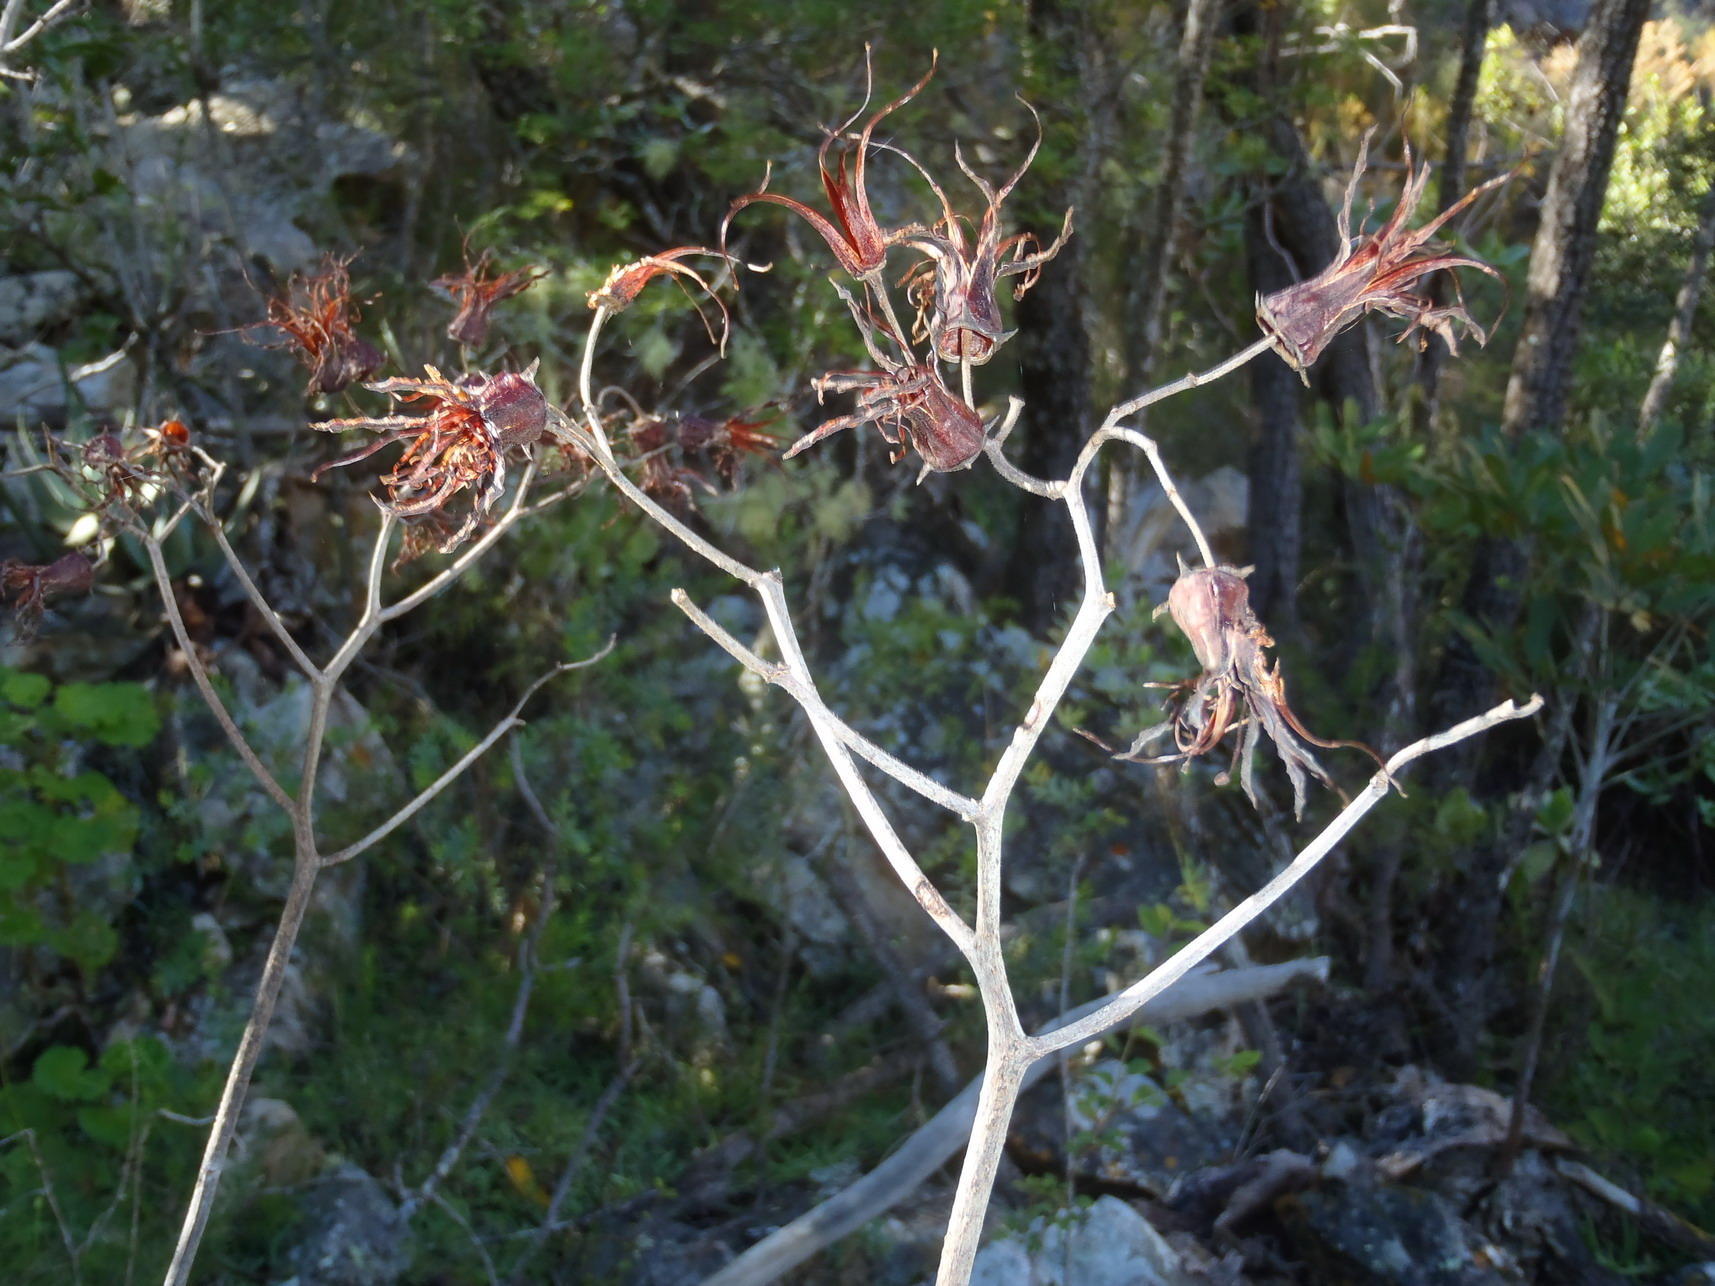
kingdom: Plantae
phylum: Tracheophyta
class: Magnoliopsida
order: Saxifragales
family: Crassulaceae
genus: Cotyledon
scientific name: Cotyledon velutina
